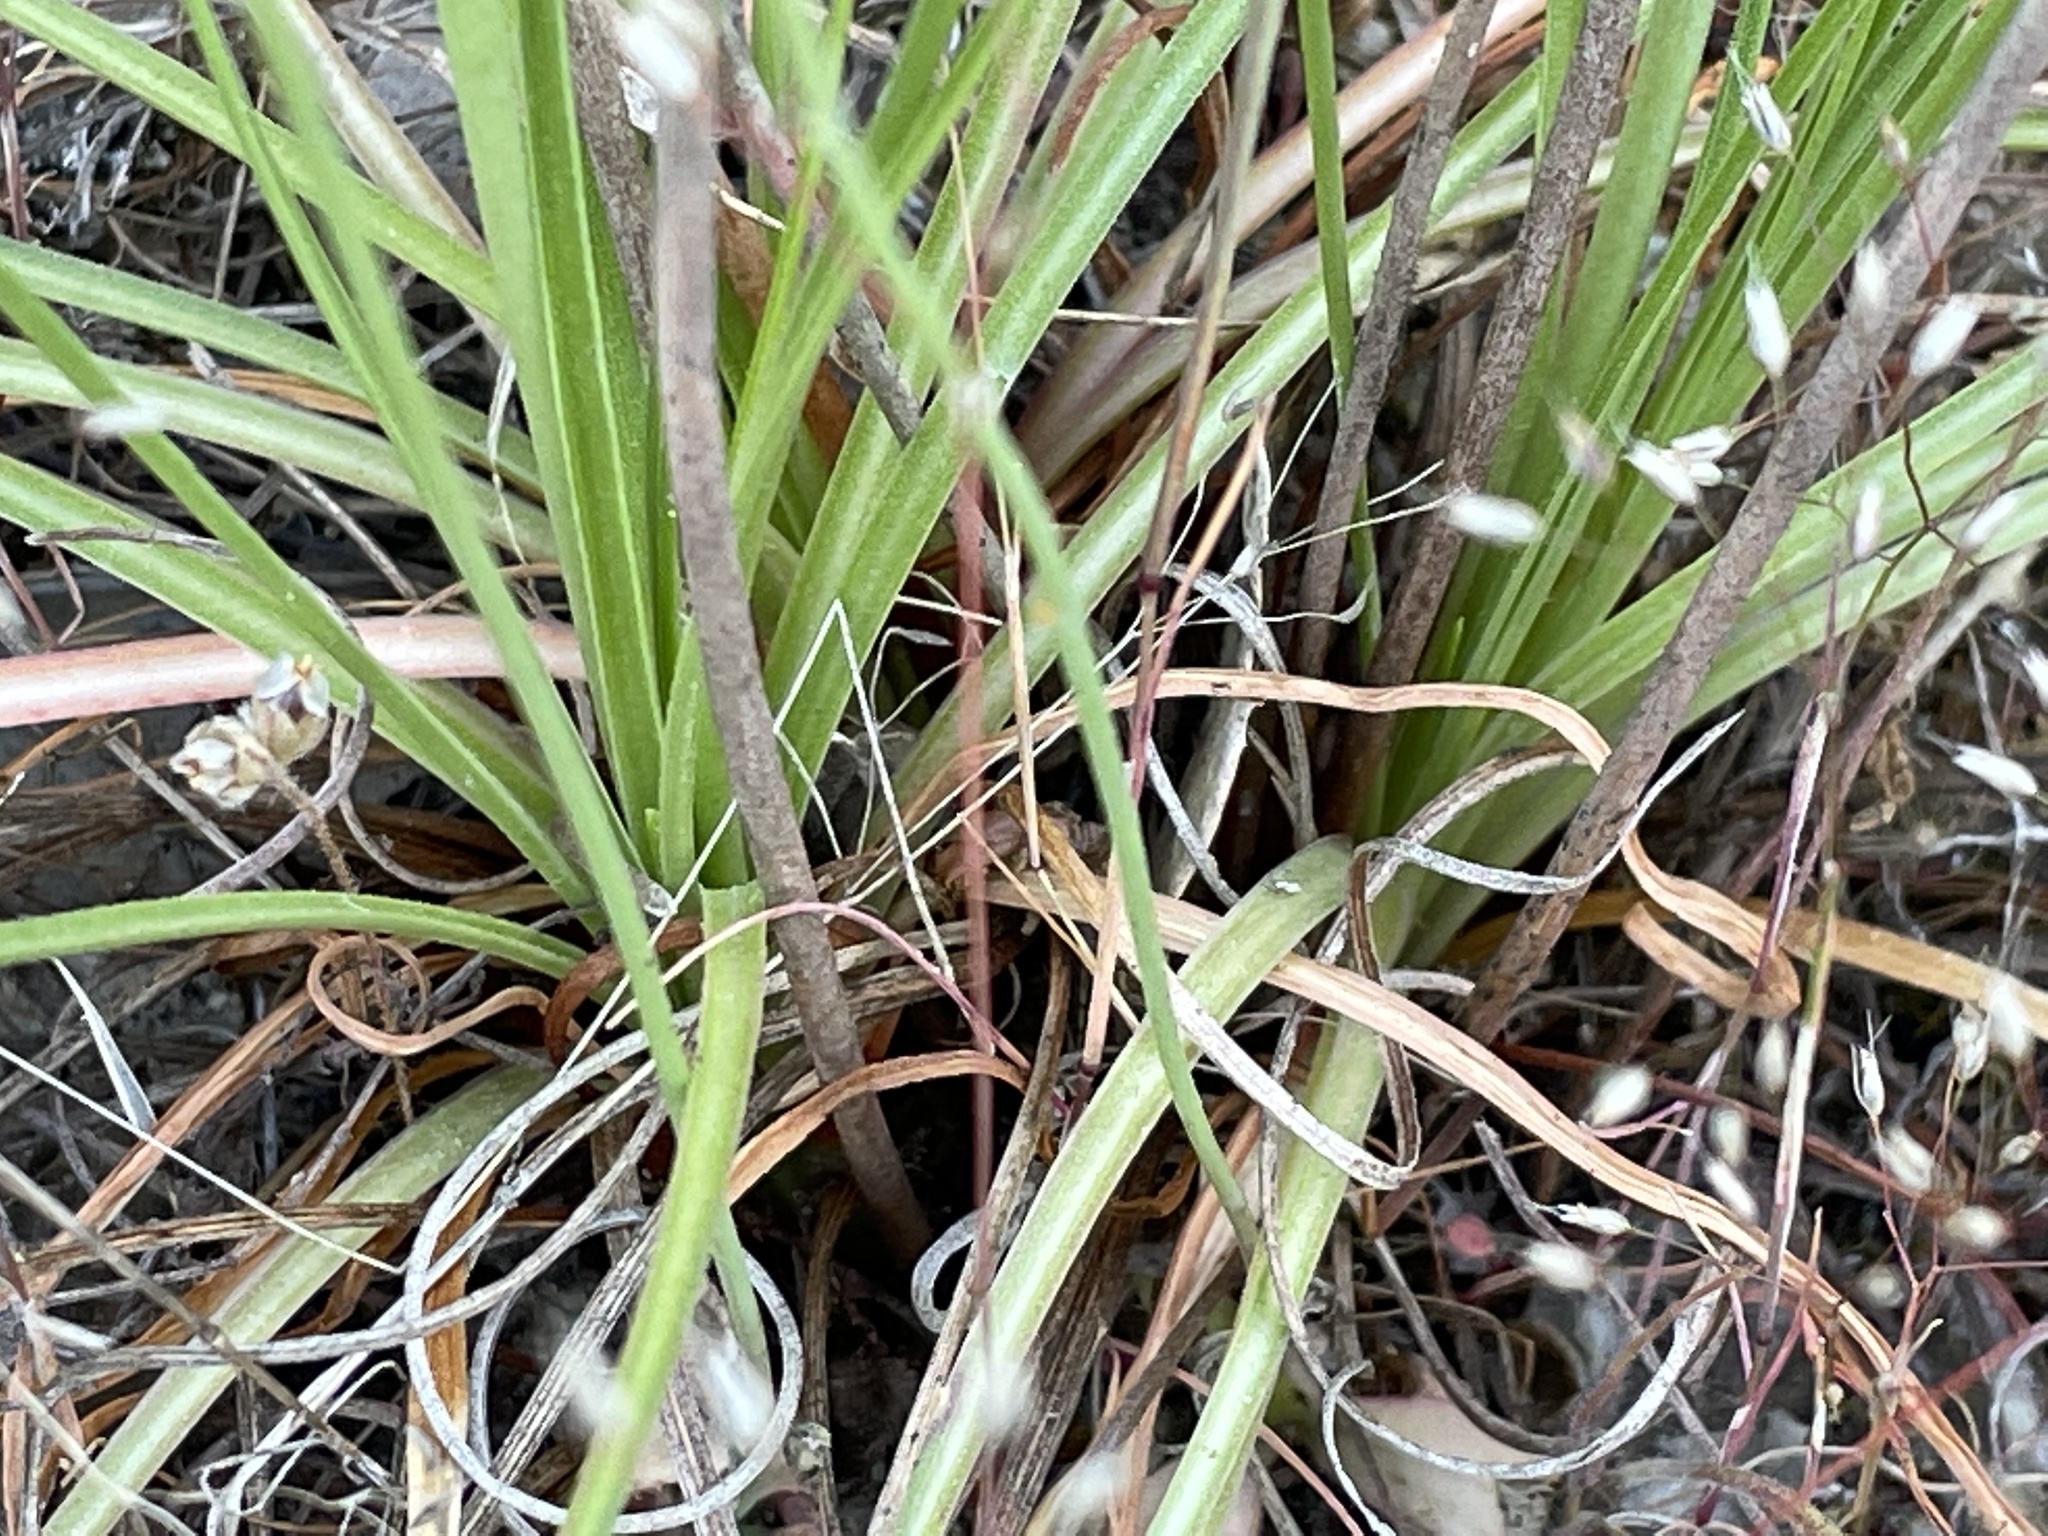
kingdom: Plantae
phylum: Tracheophyta
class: Magnoliopsida
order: Caryophyllales
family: Plumbaginaceae
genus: Armeria
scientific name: Armeria maritima
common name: Thrift
